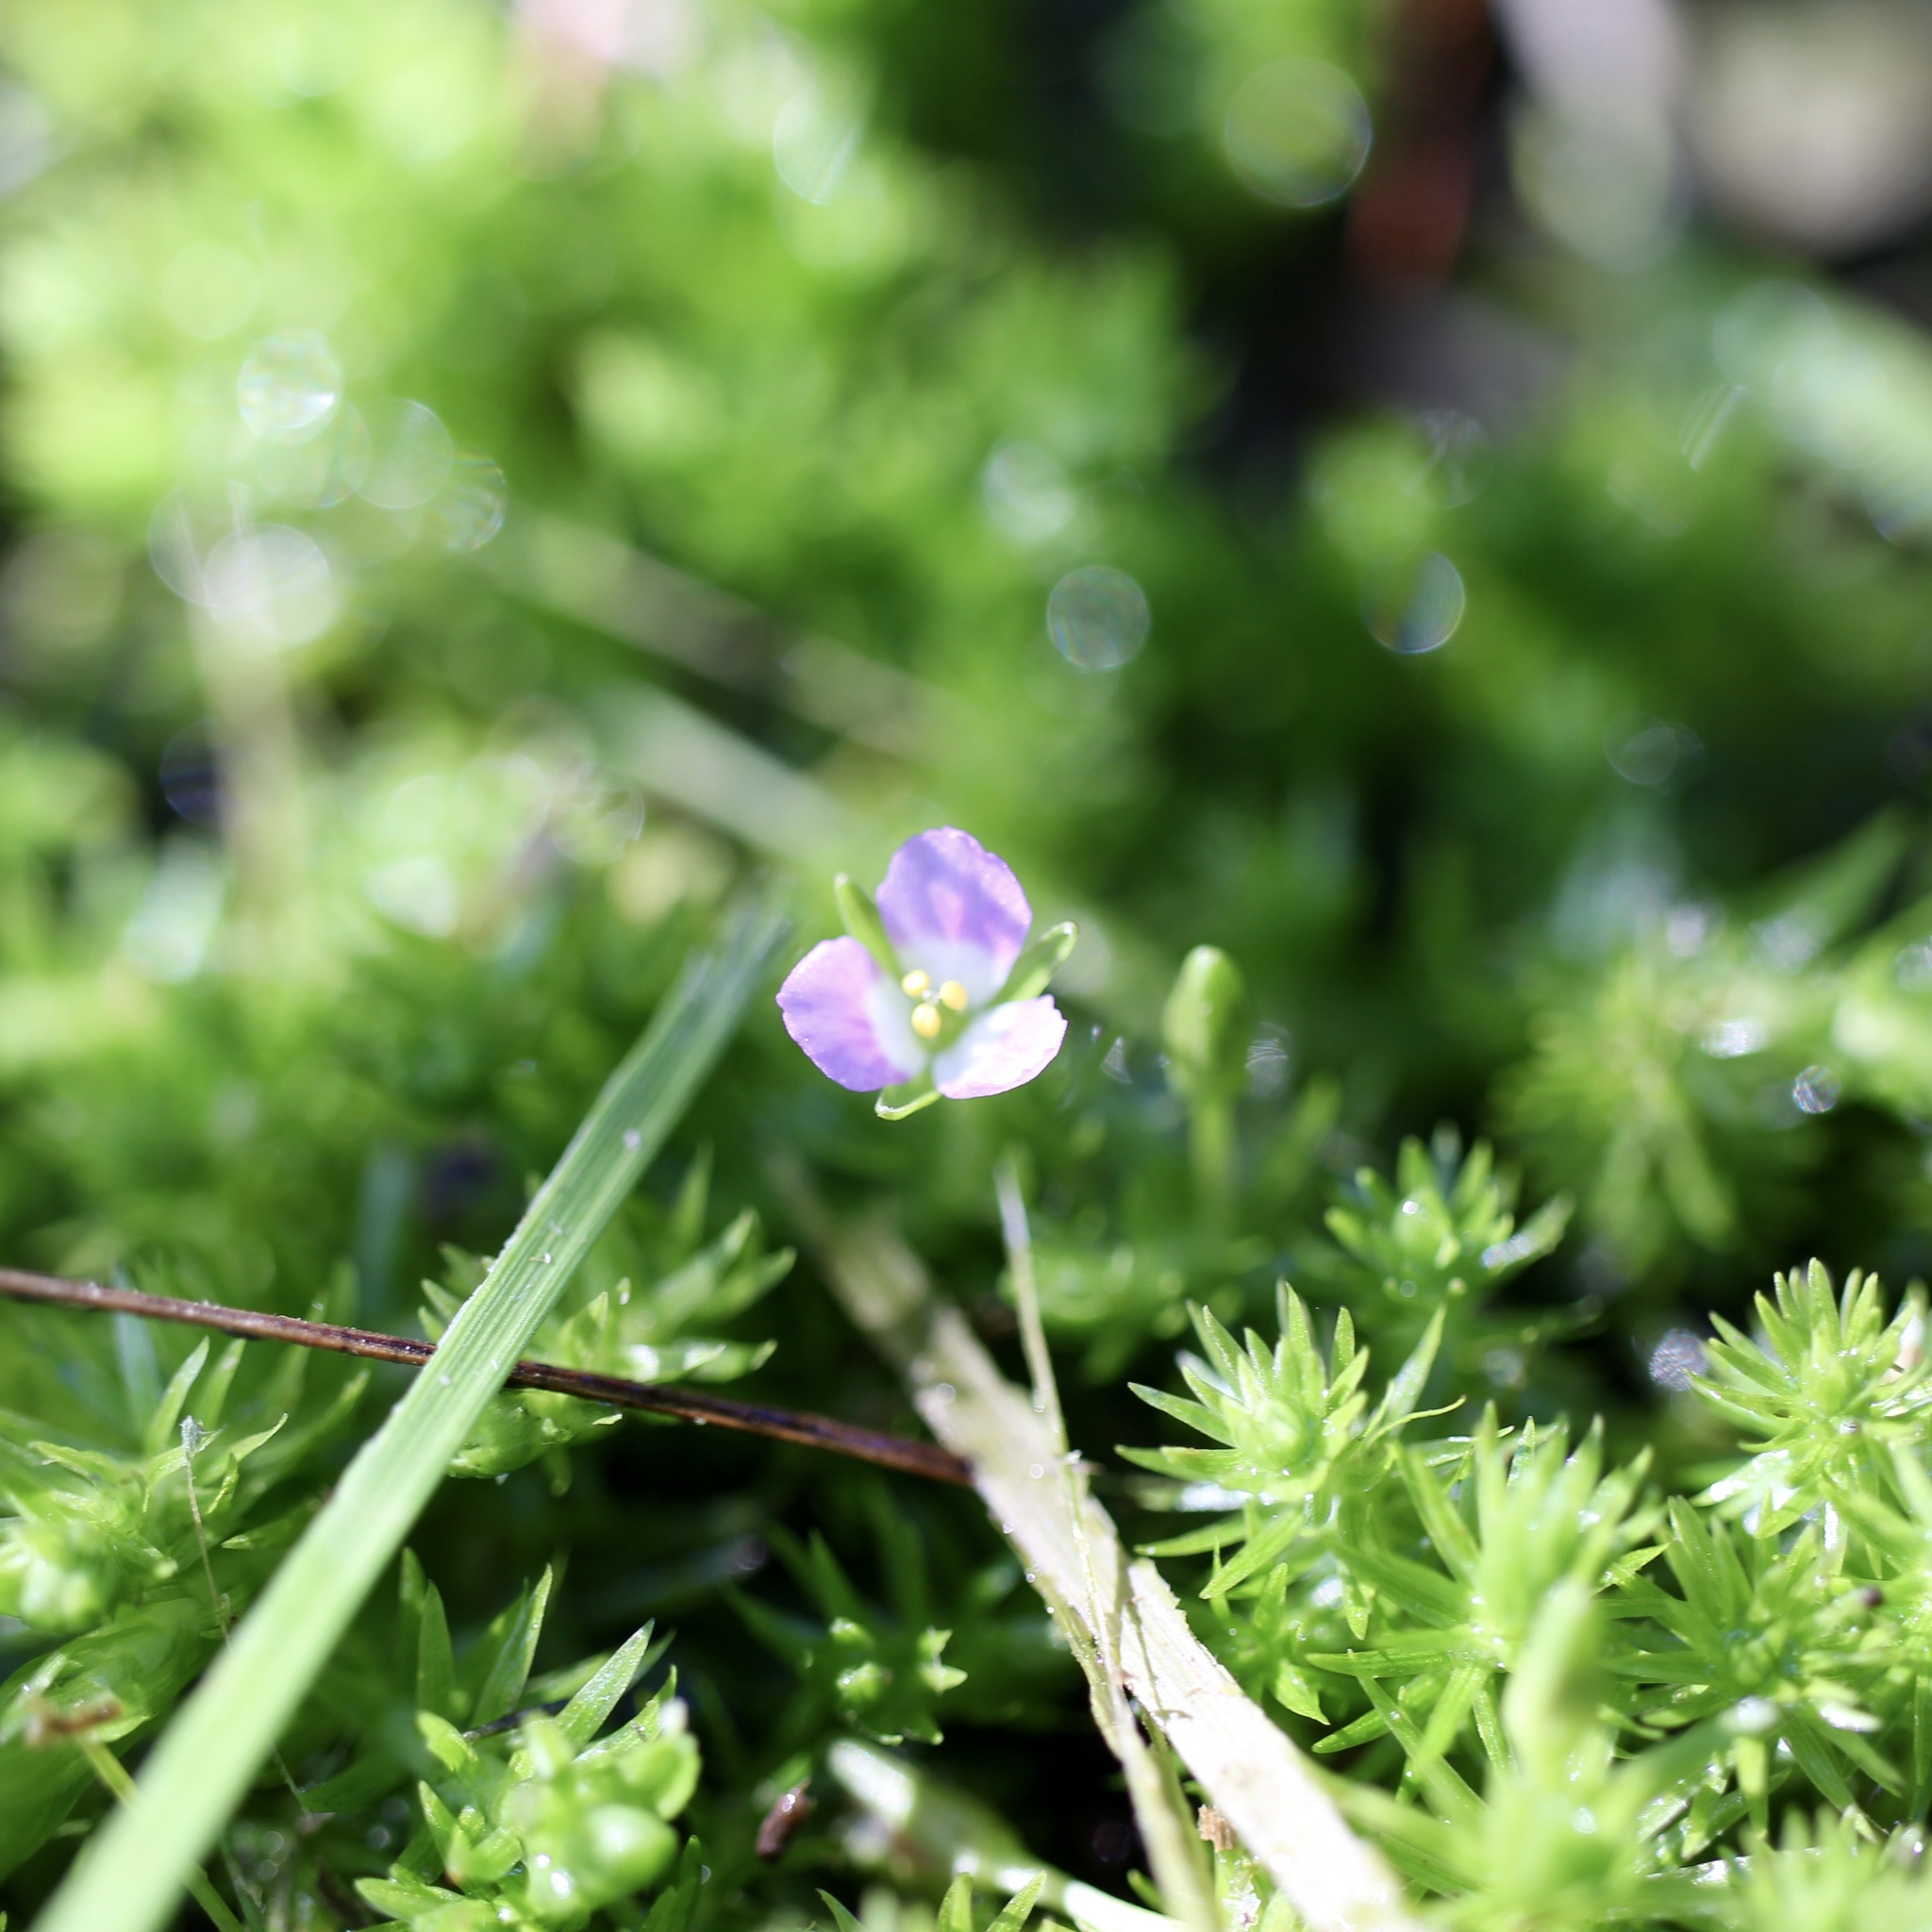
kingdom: Plantae
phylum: Tracheophyta
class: Liliopsida
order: Poales
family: Mayacaceae
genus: Mayaca
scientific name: Mayaca fluviatilis
